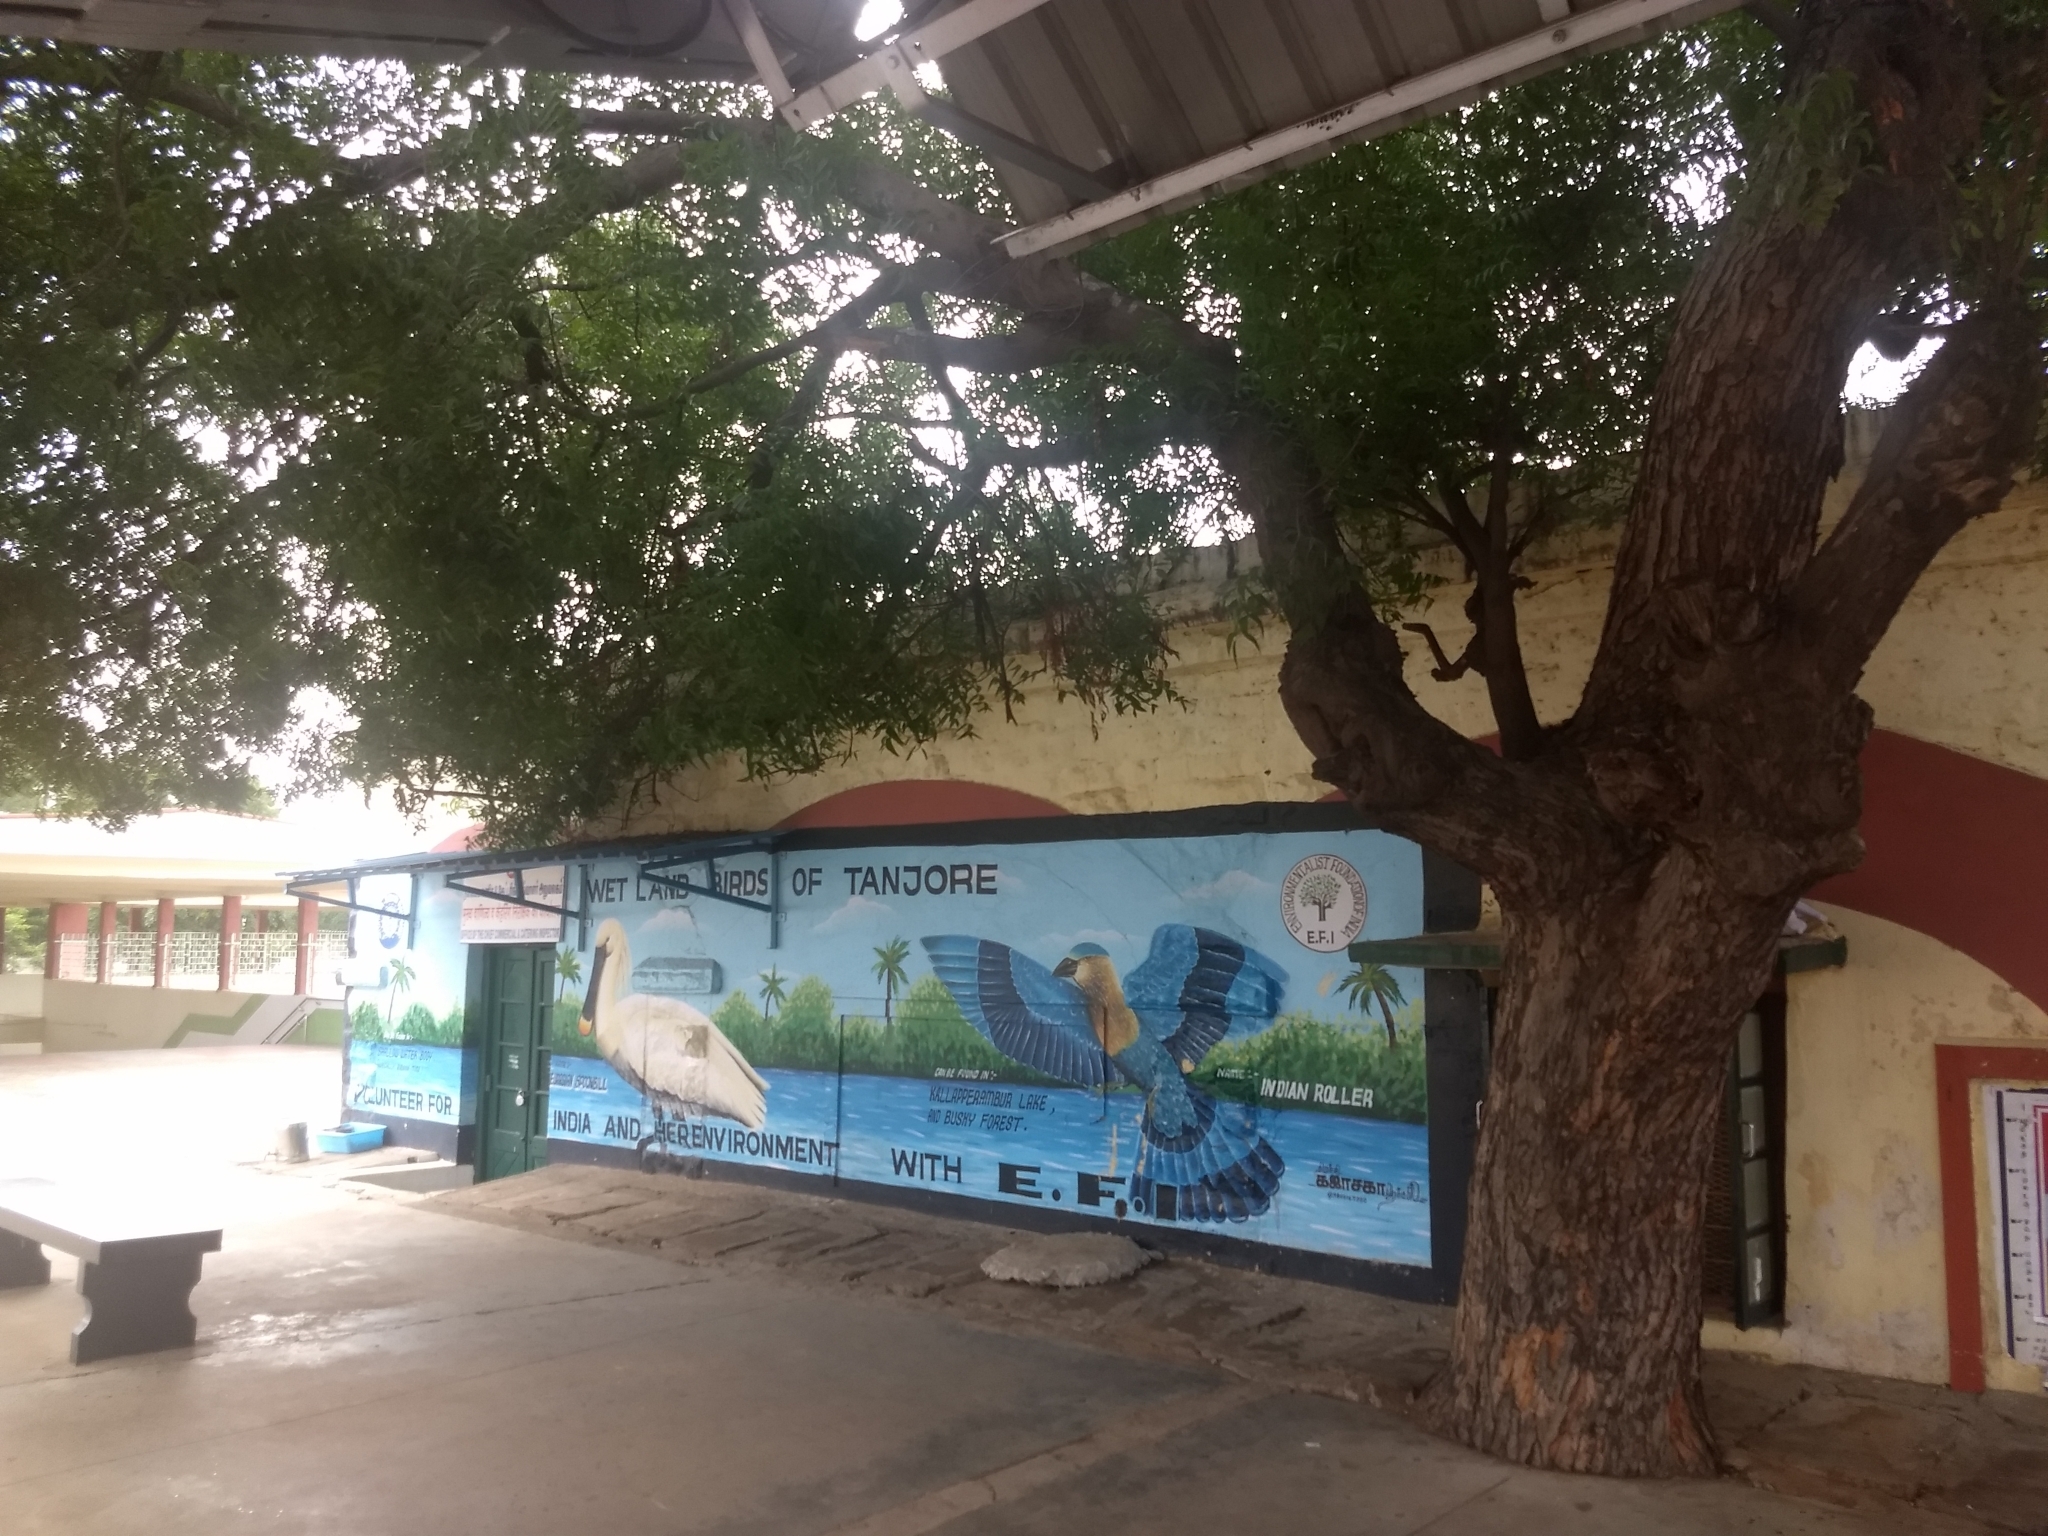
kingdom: Plantae
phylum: Tracheophyta
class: Magnoliopsida
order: Sapindales
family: Meliaceae
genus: Azadirachta
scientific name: Azadirachta indica
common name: Neem
